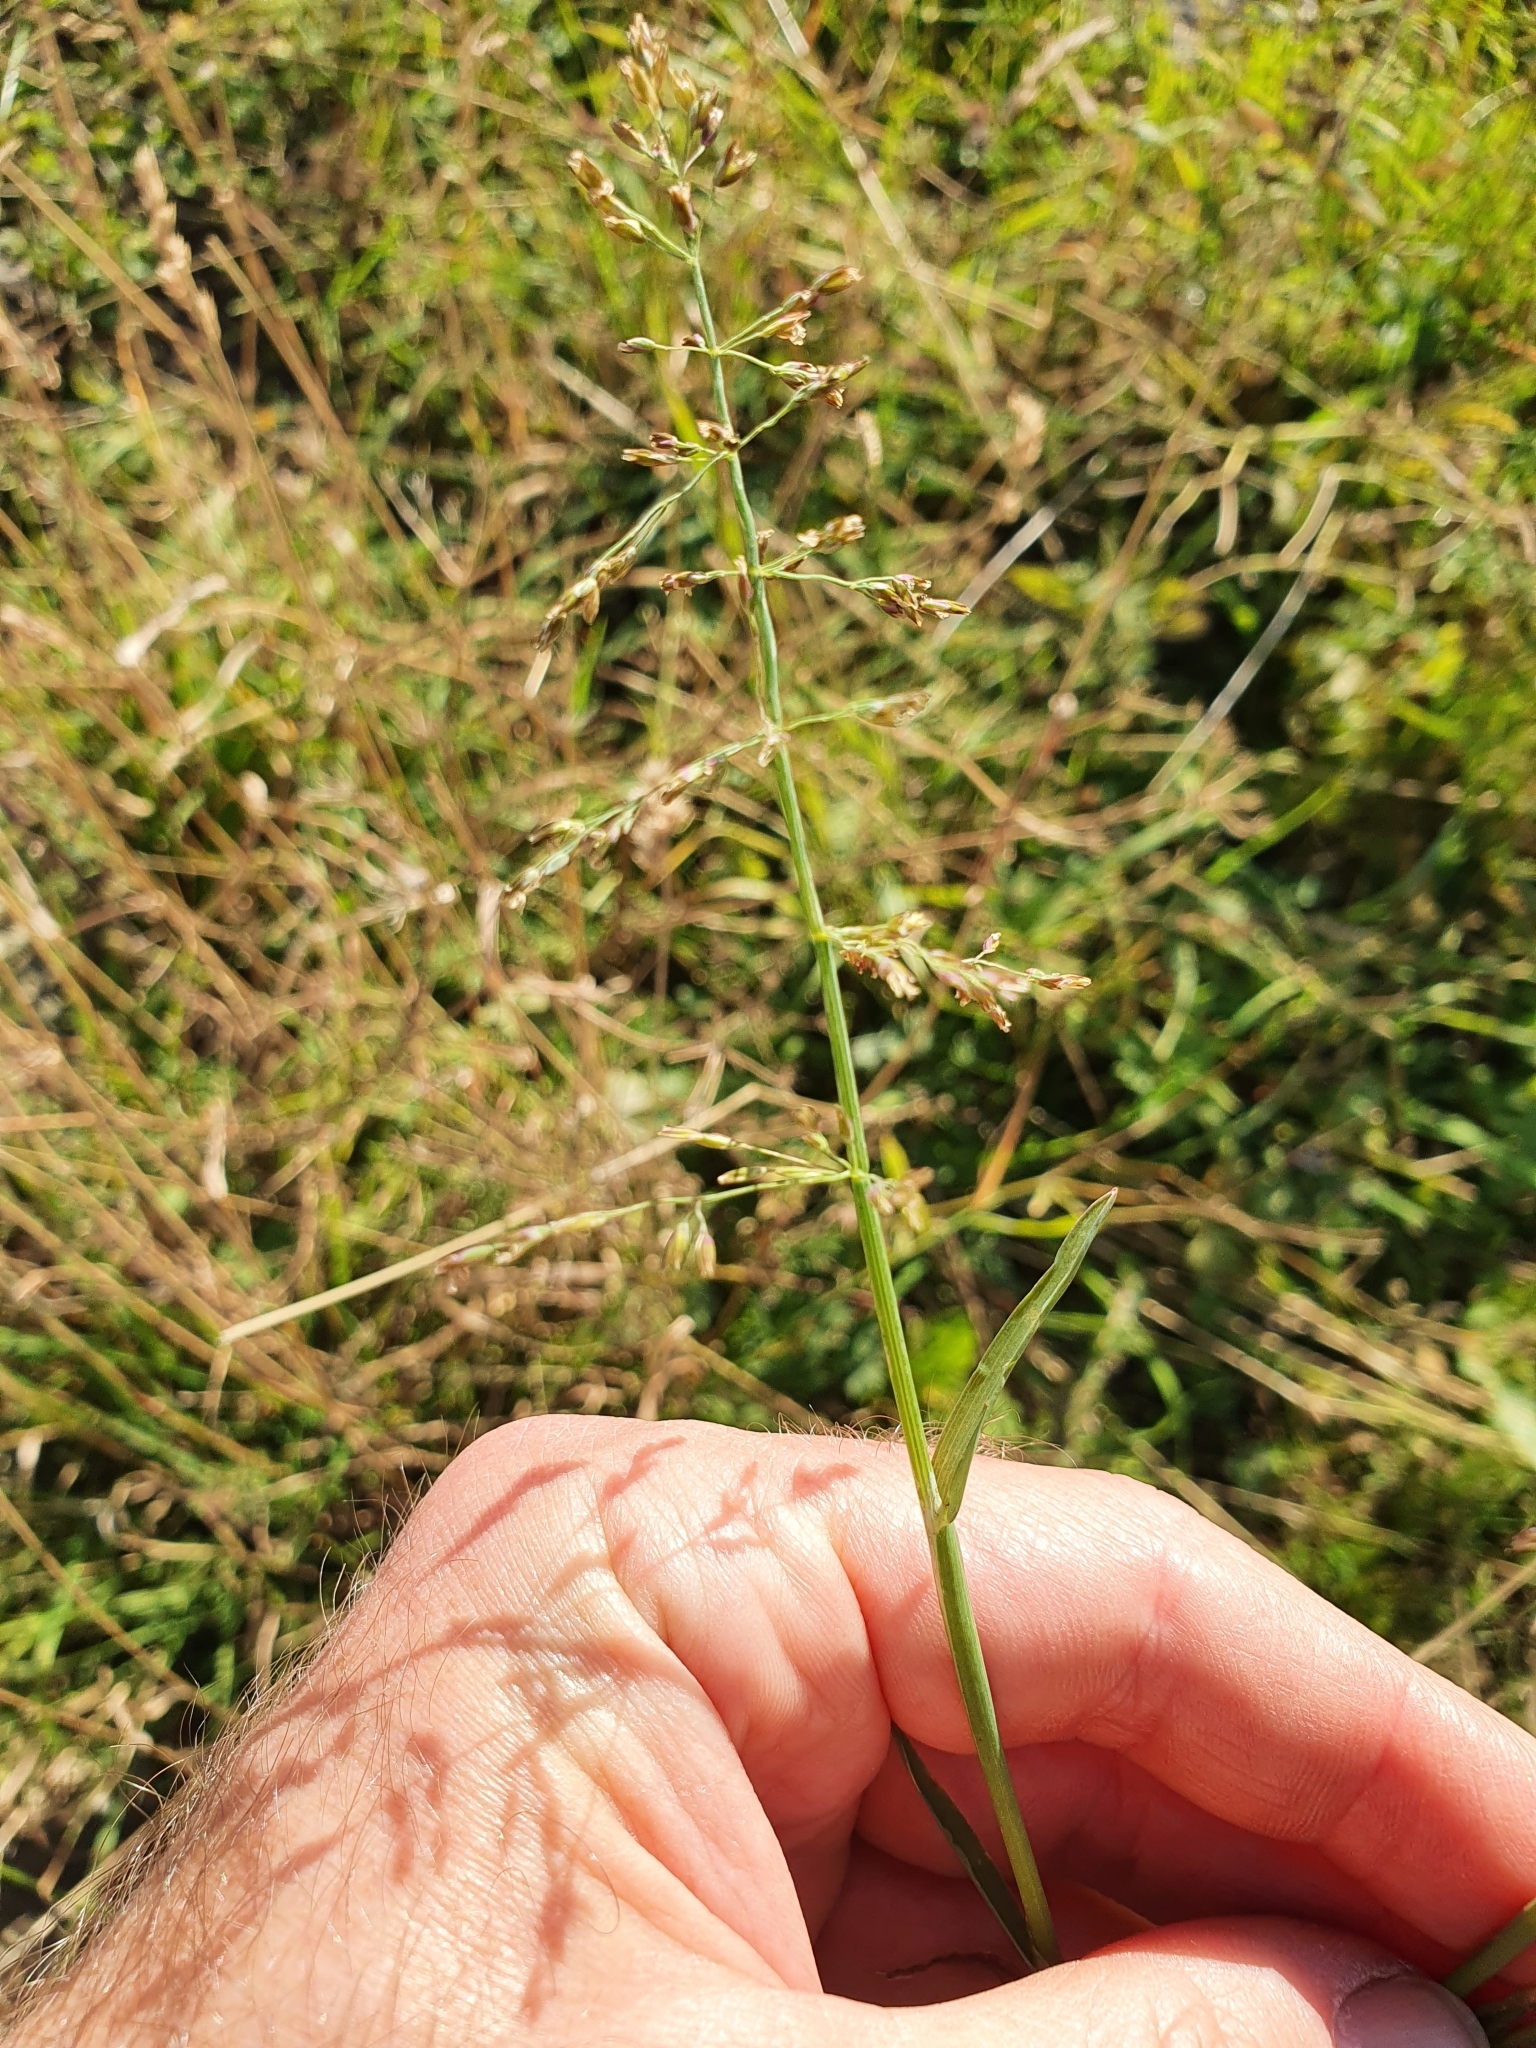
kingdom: Plantae
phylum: Tracheophyta
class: Liliopsida
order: Poales
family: Poaceae
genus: Catabrosa
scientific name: Catabrosa aquatica
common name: Whorl-grass
